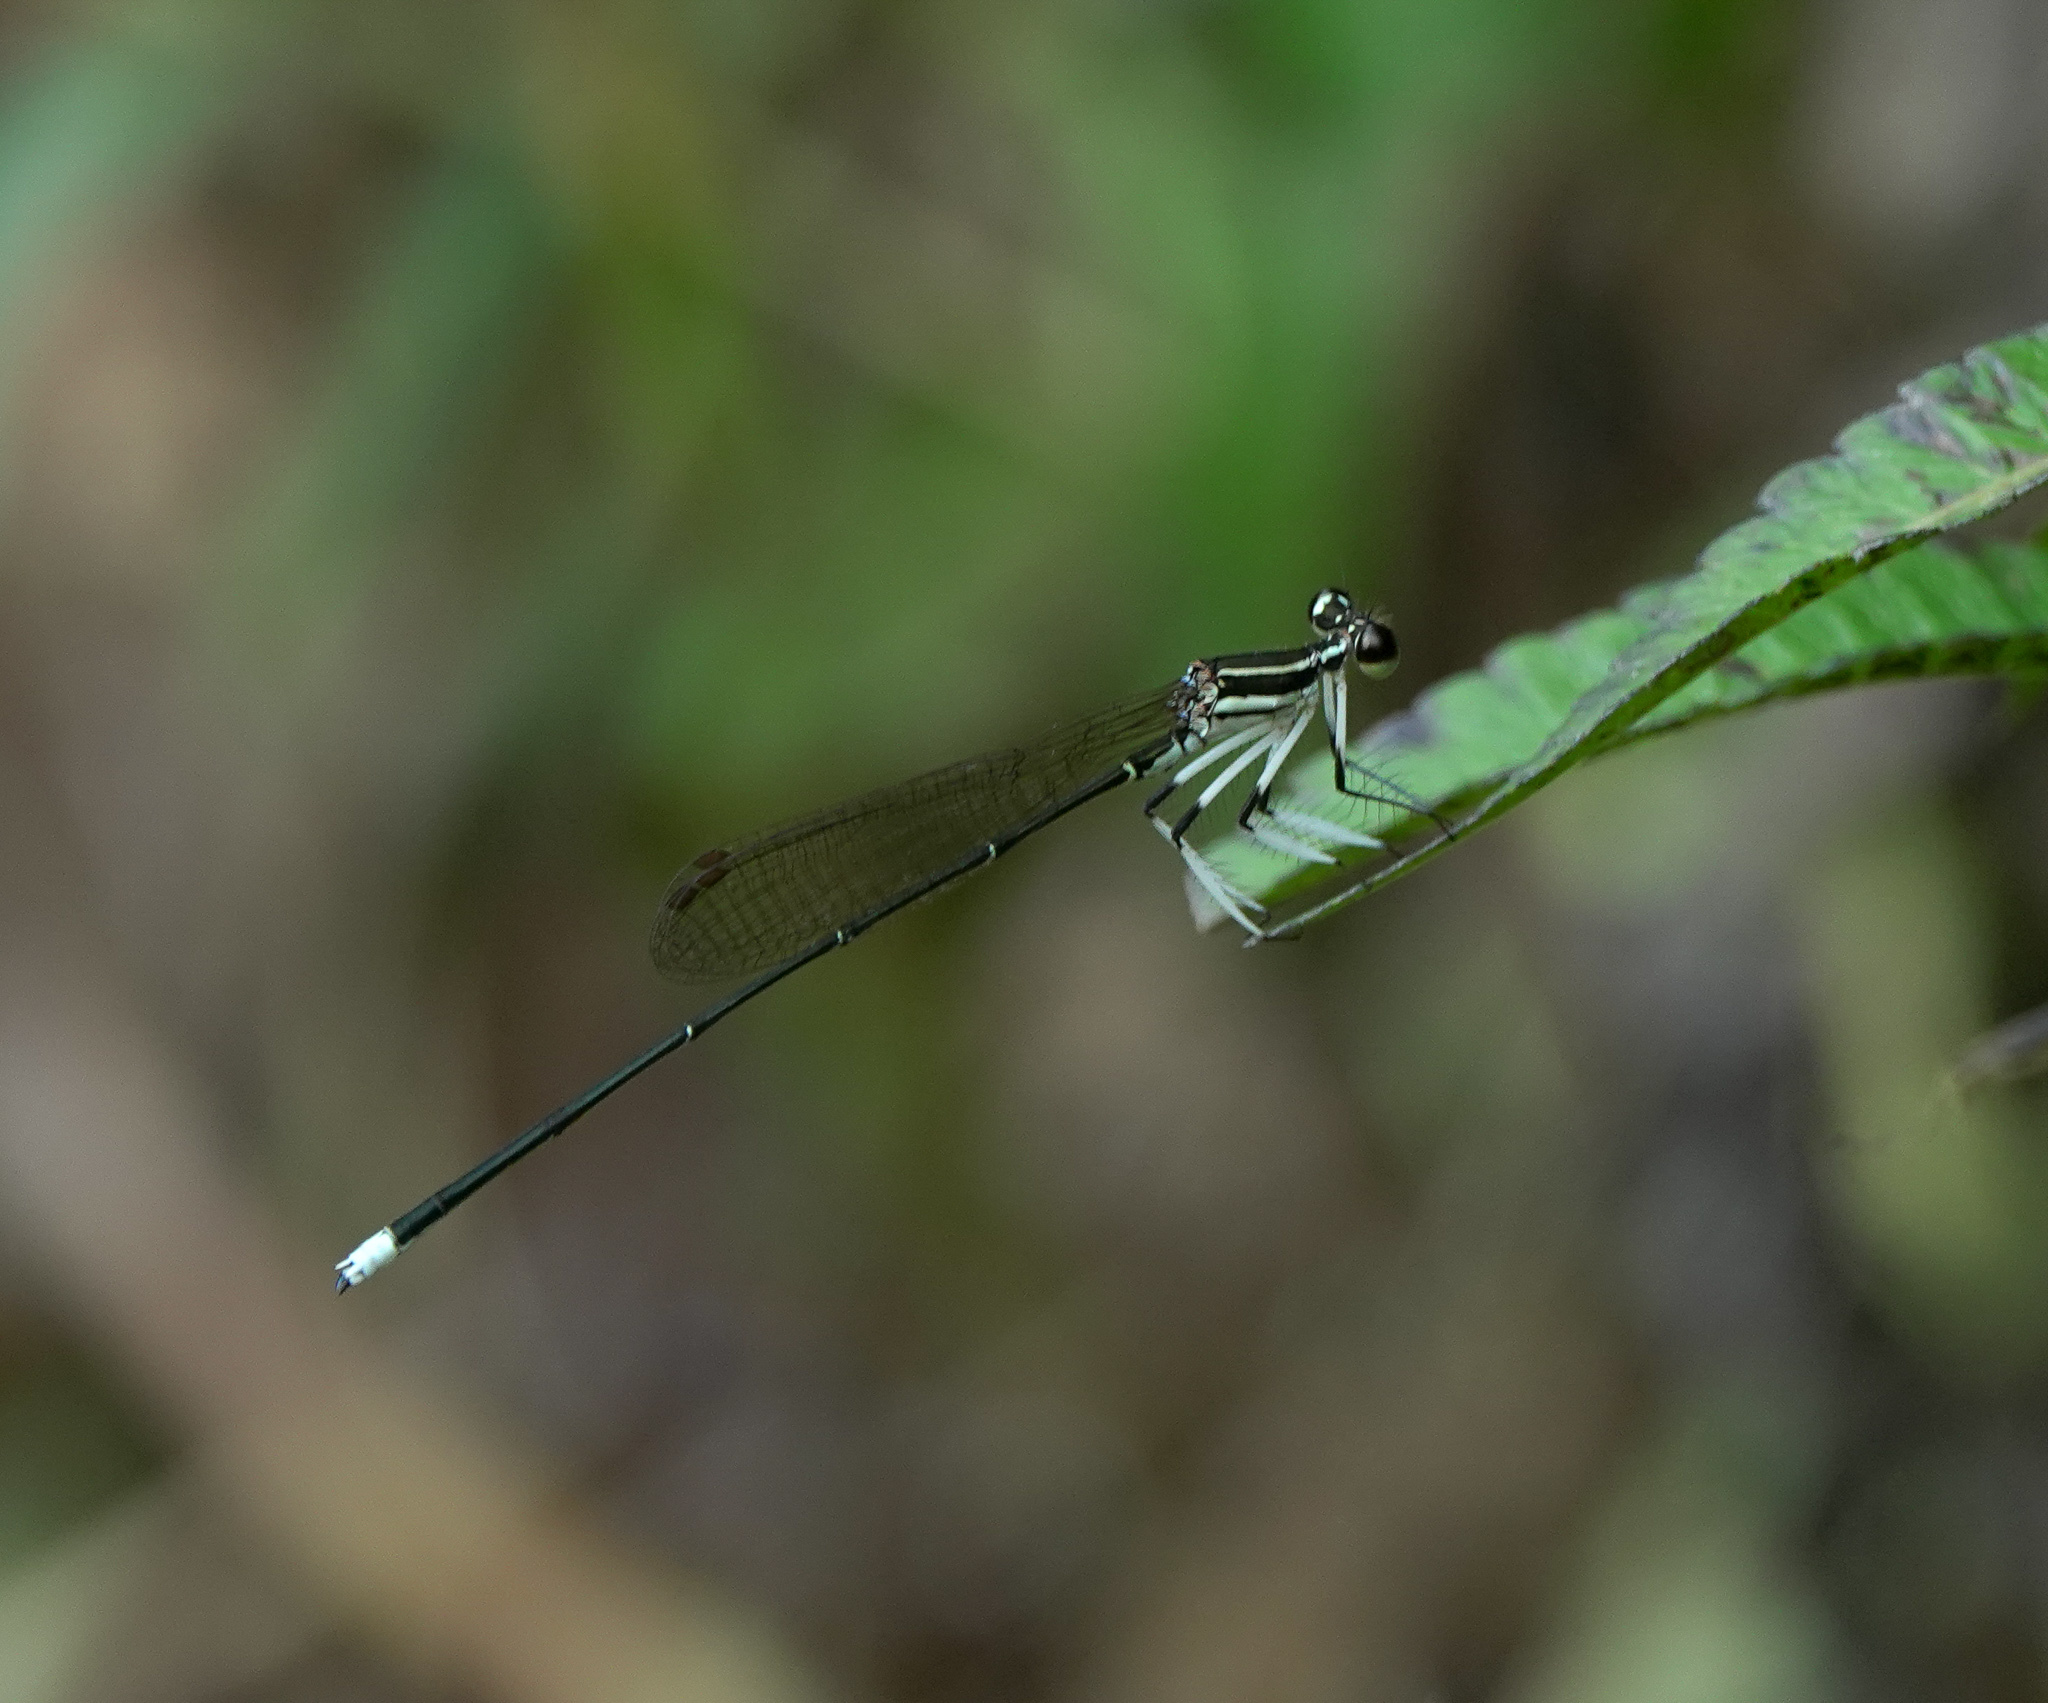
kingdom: Animalia
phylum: Arthropoda
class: Insecta
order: Odonata
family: Platycnemididae
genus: Pseudocopera
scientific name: Pseudocopera ciliata
